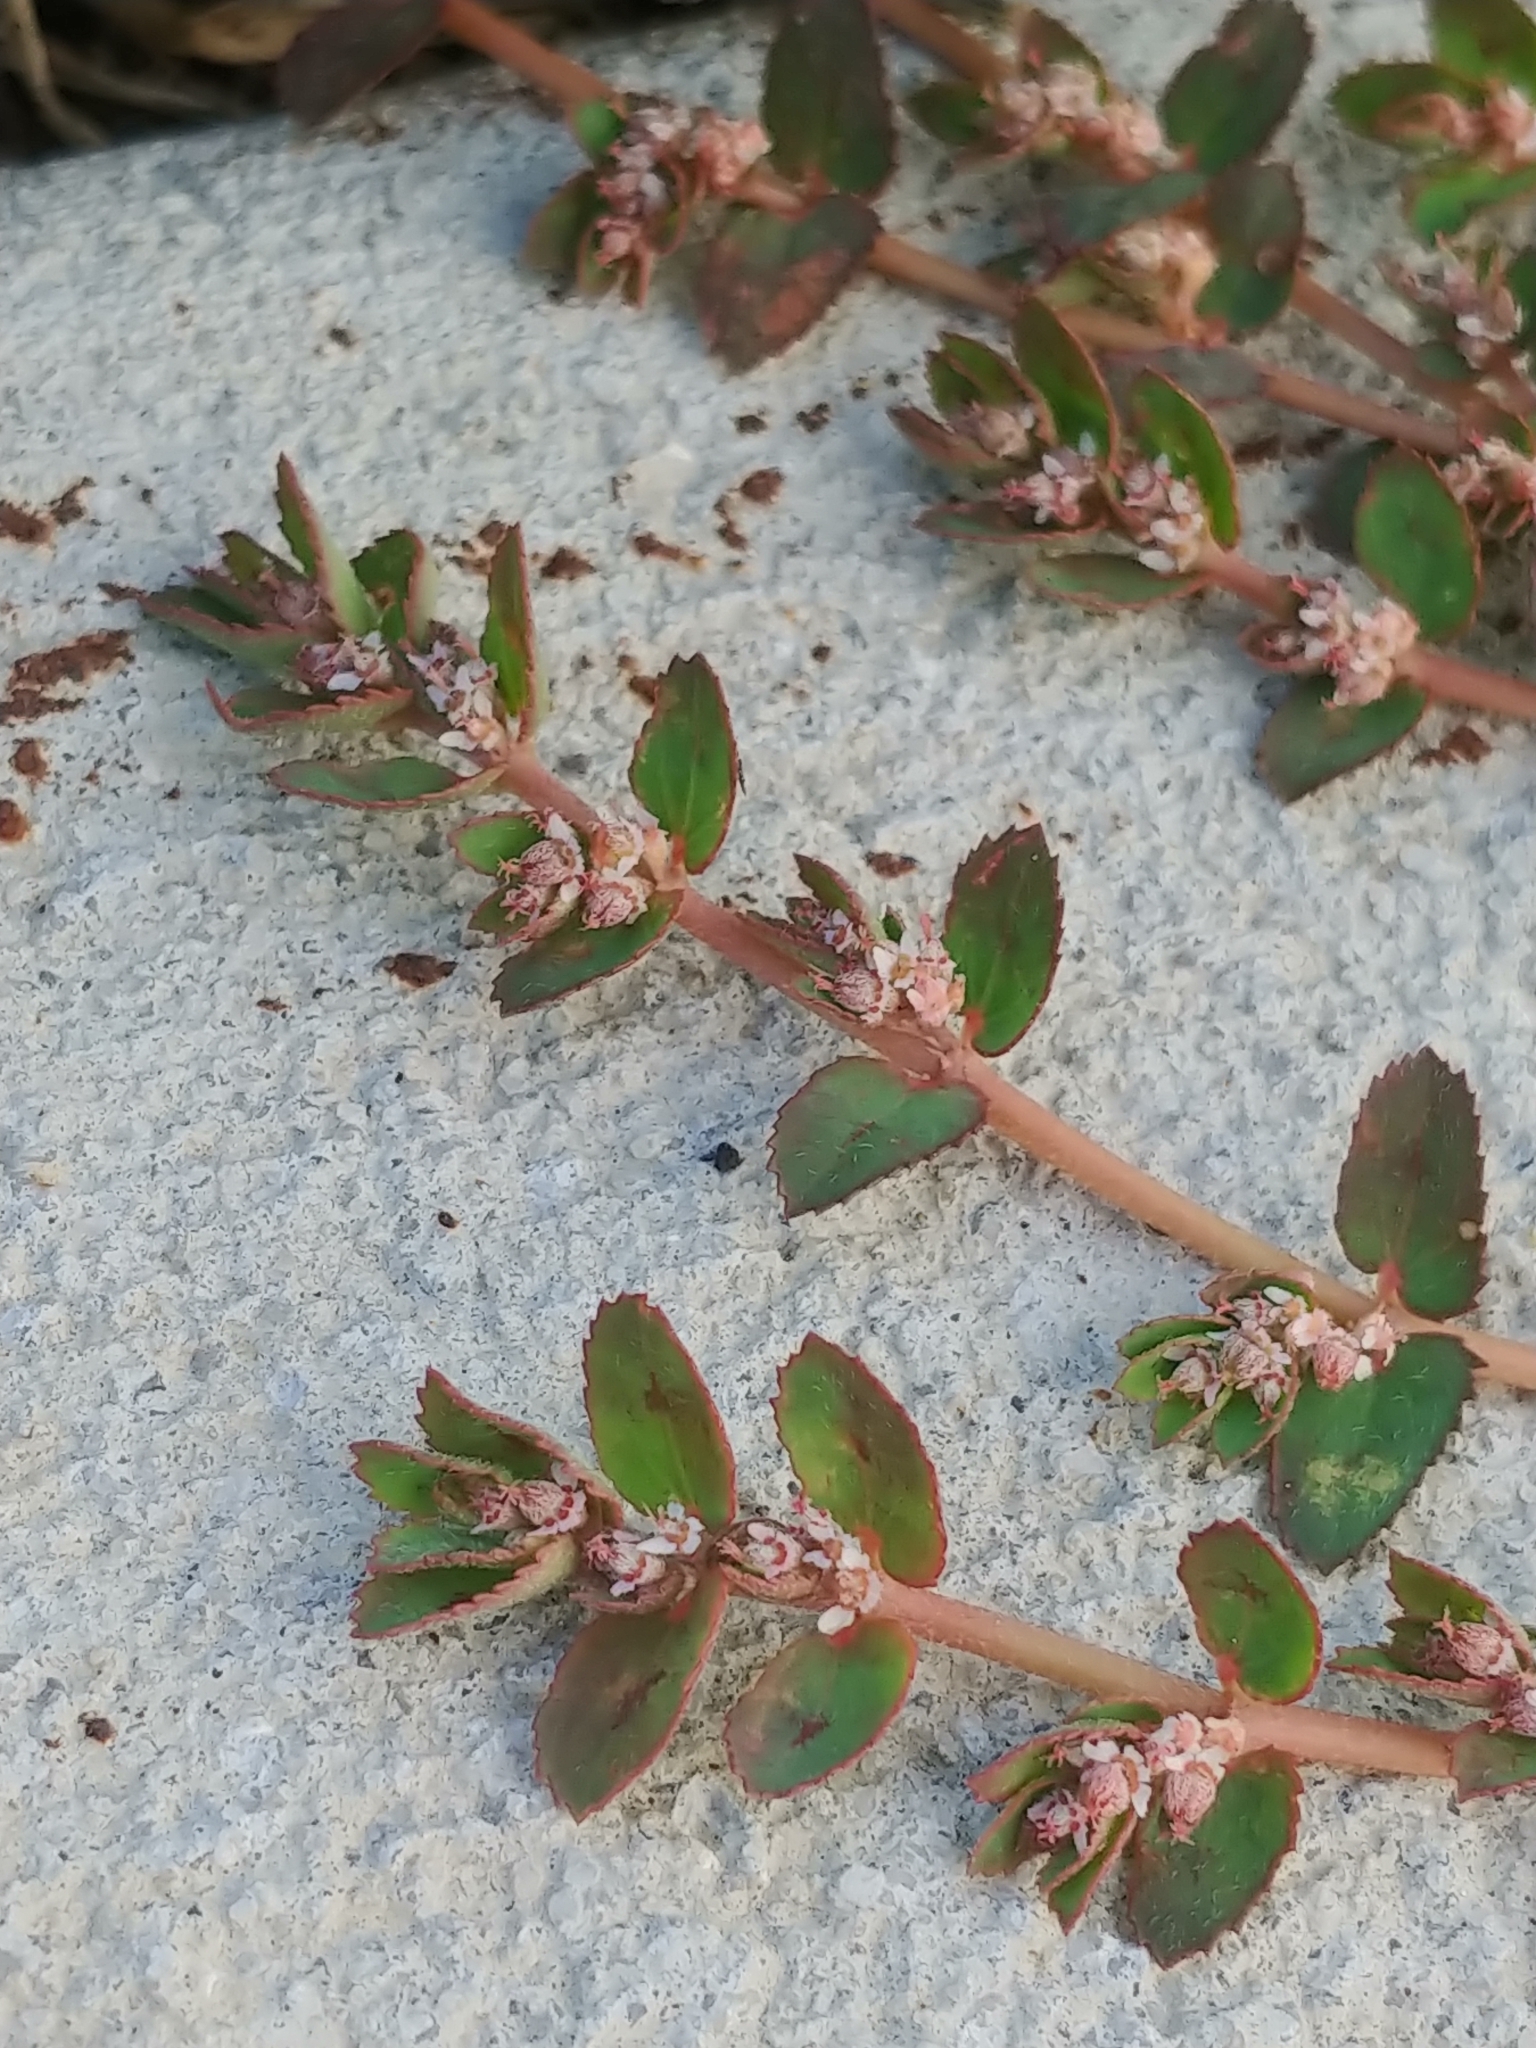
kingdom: Plantae
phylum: Tracheophyta
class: Magnoliopsida
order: Malpighiales
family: Euphorbiaceae
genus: Euphorbia
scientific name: Euphorbia thymifolia
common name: Gulf sandmat
